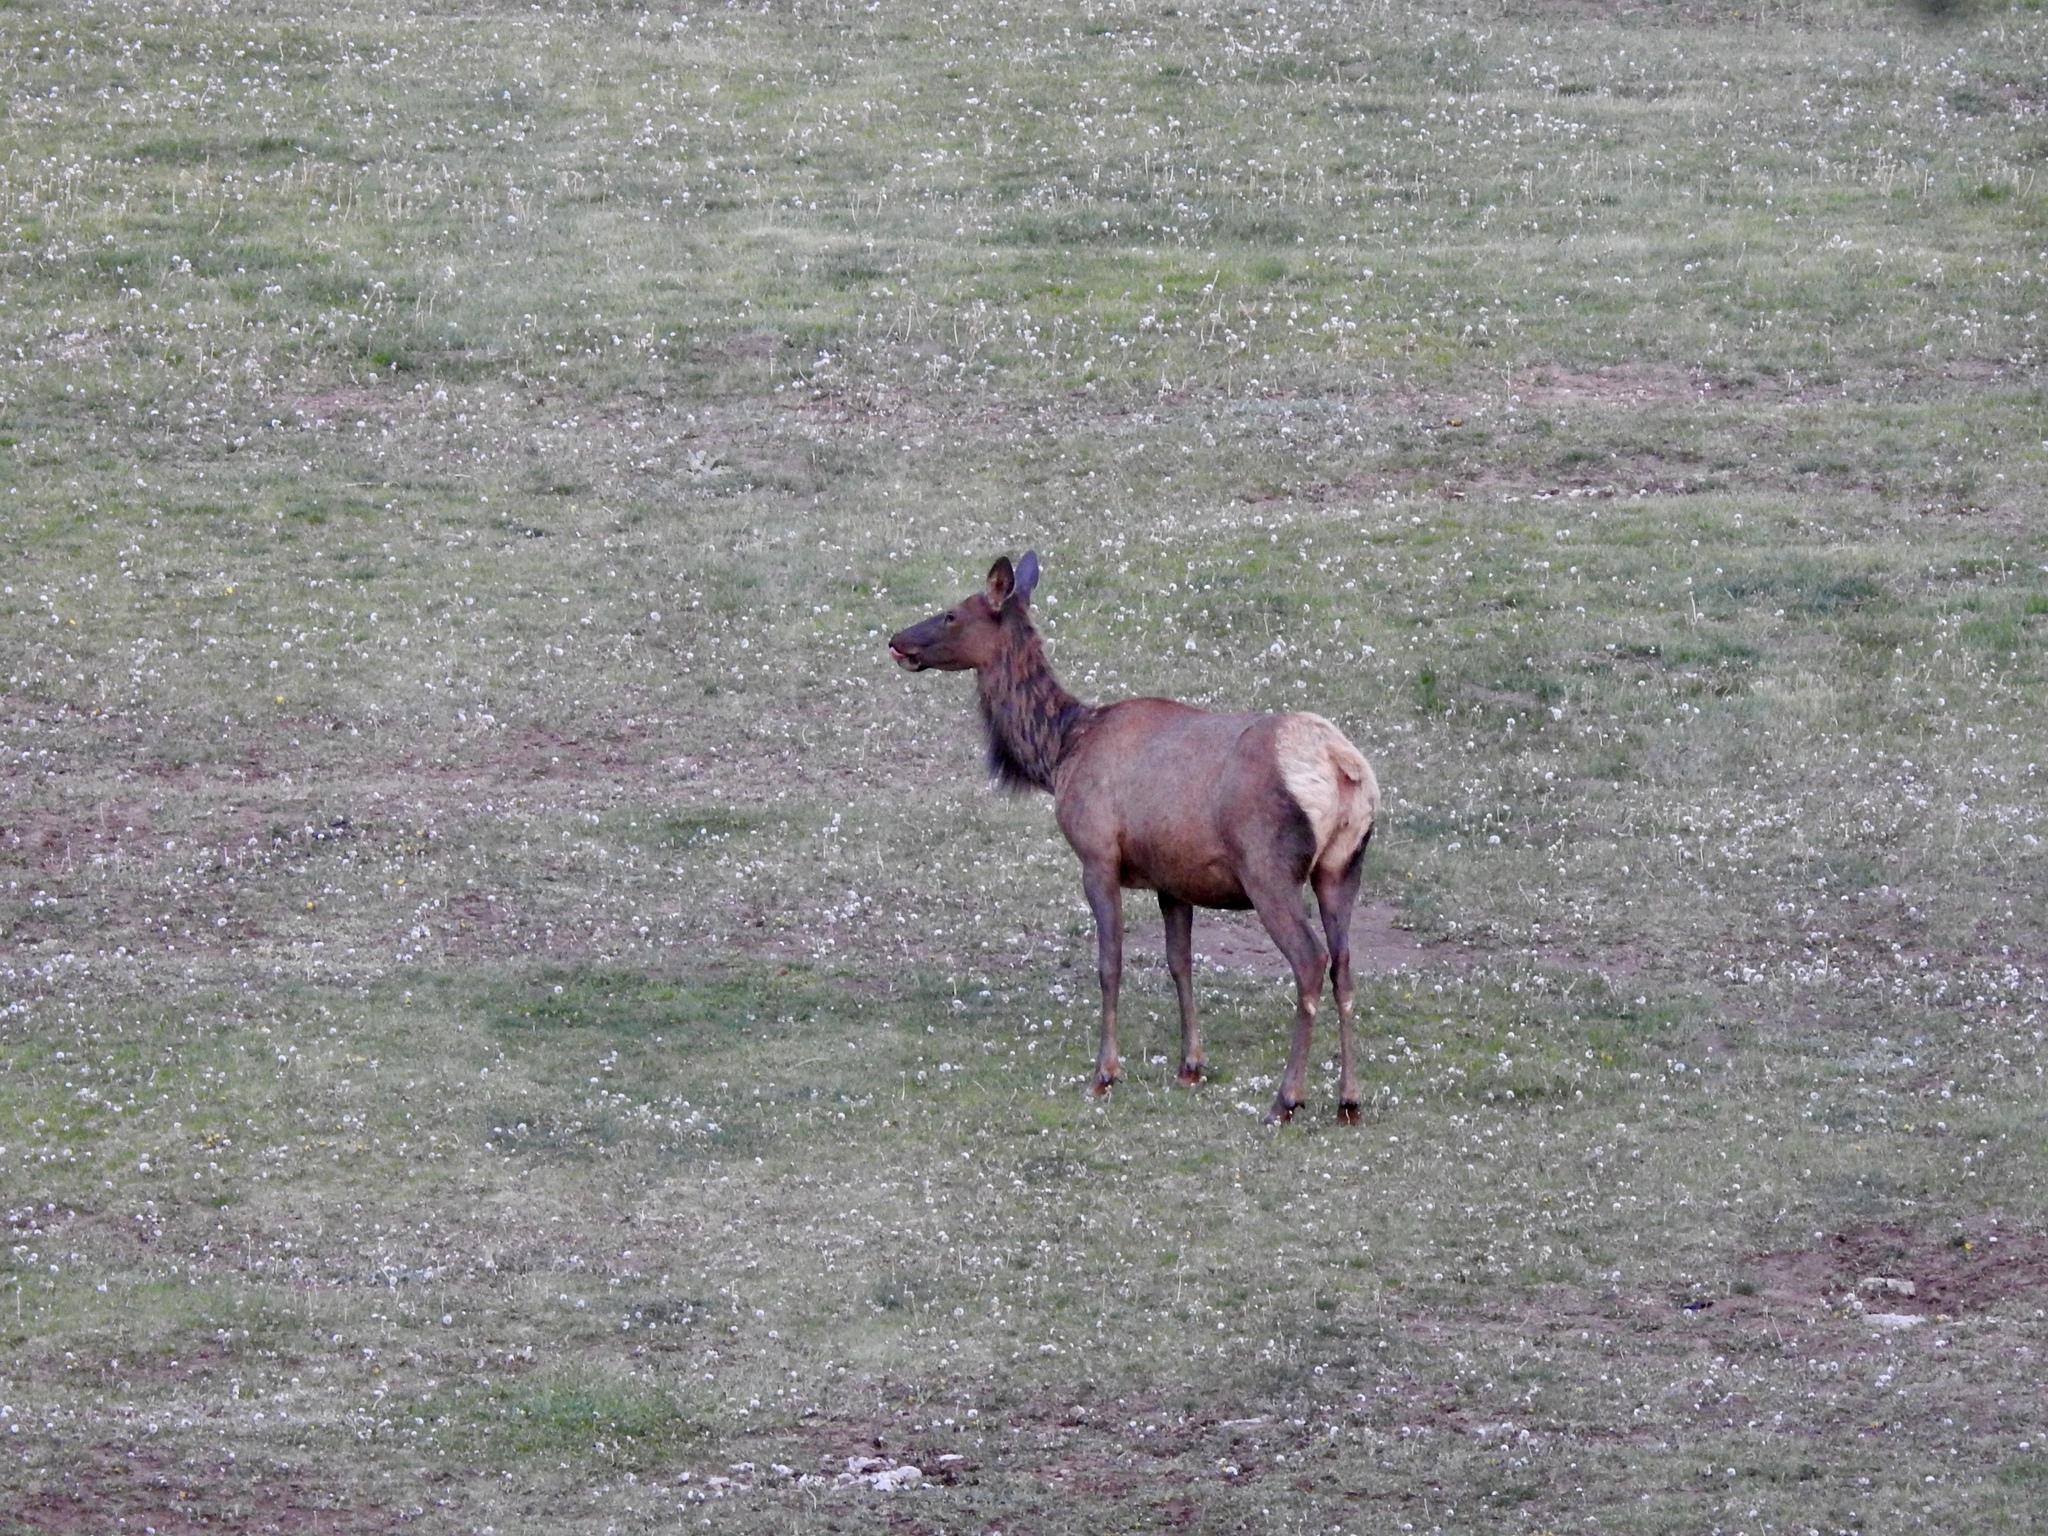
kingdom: Animalia
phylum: Chordata
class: Mammalia
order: Artiodactyla
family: Cervidae
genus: Cervus
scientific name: Cervus elaphus
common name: Red deer
